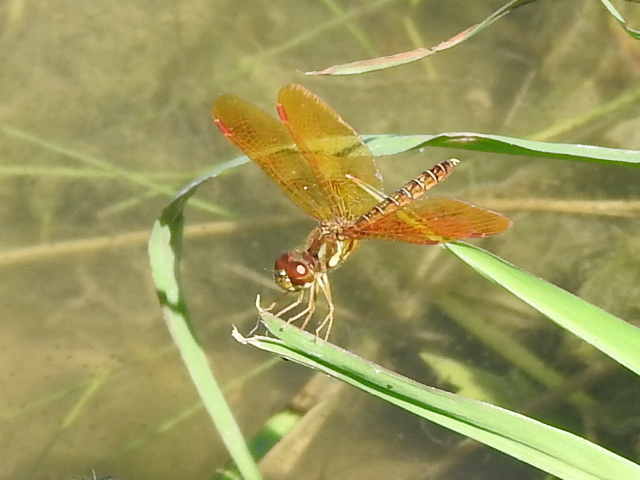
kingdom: Animalia
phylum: Arthropoda
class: Insecta
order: Odonata
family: Libellulidae
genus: Perithemis
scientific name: Perithemis tenera
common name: Eastern amberwing
